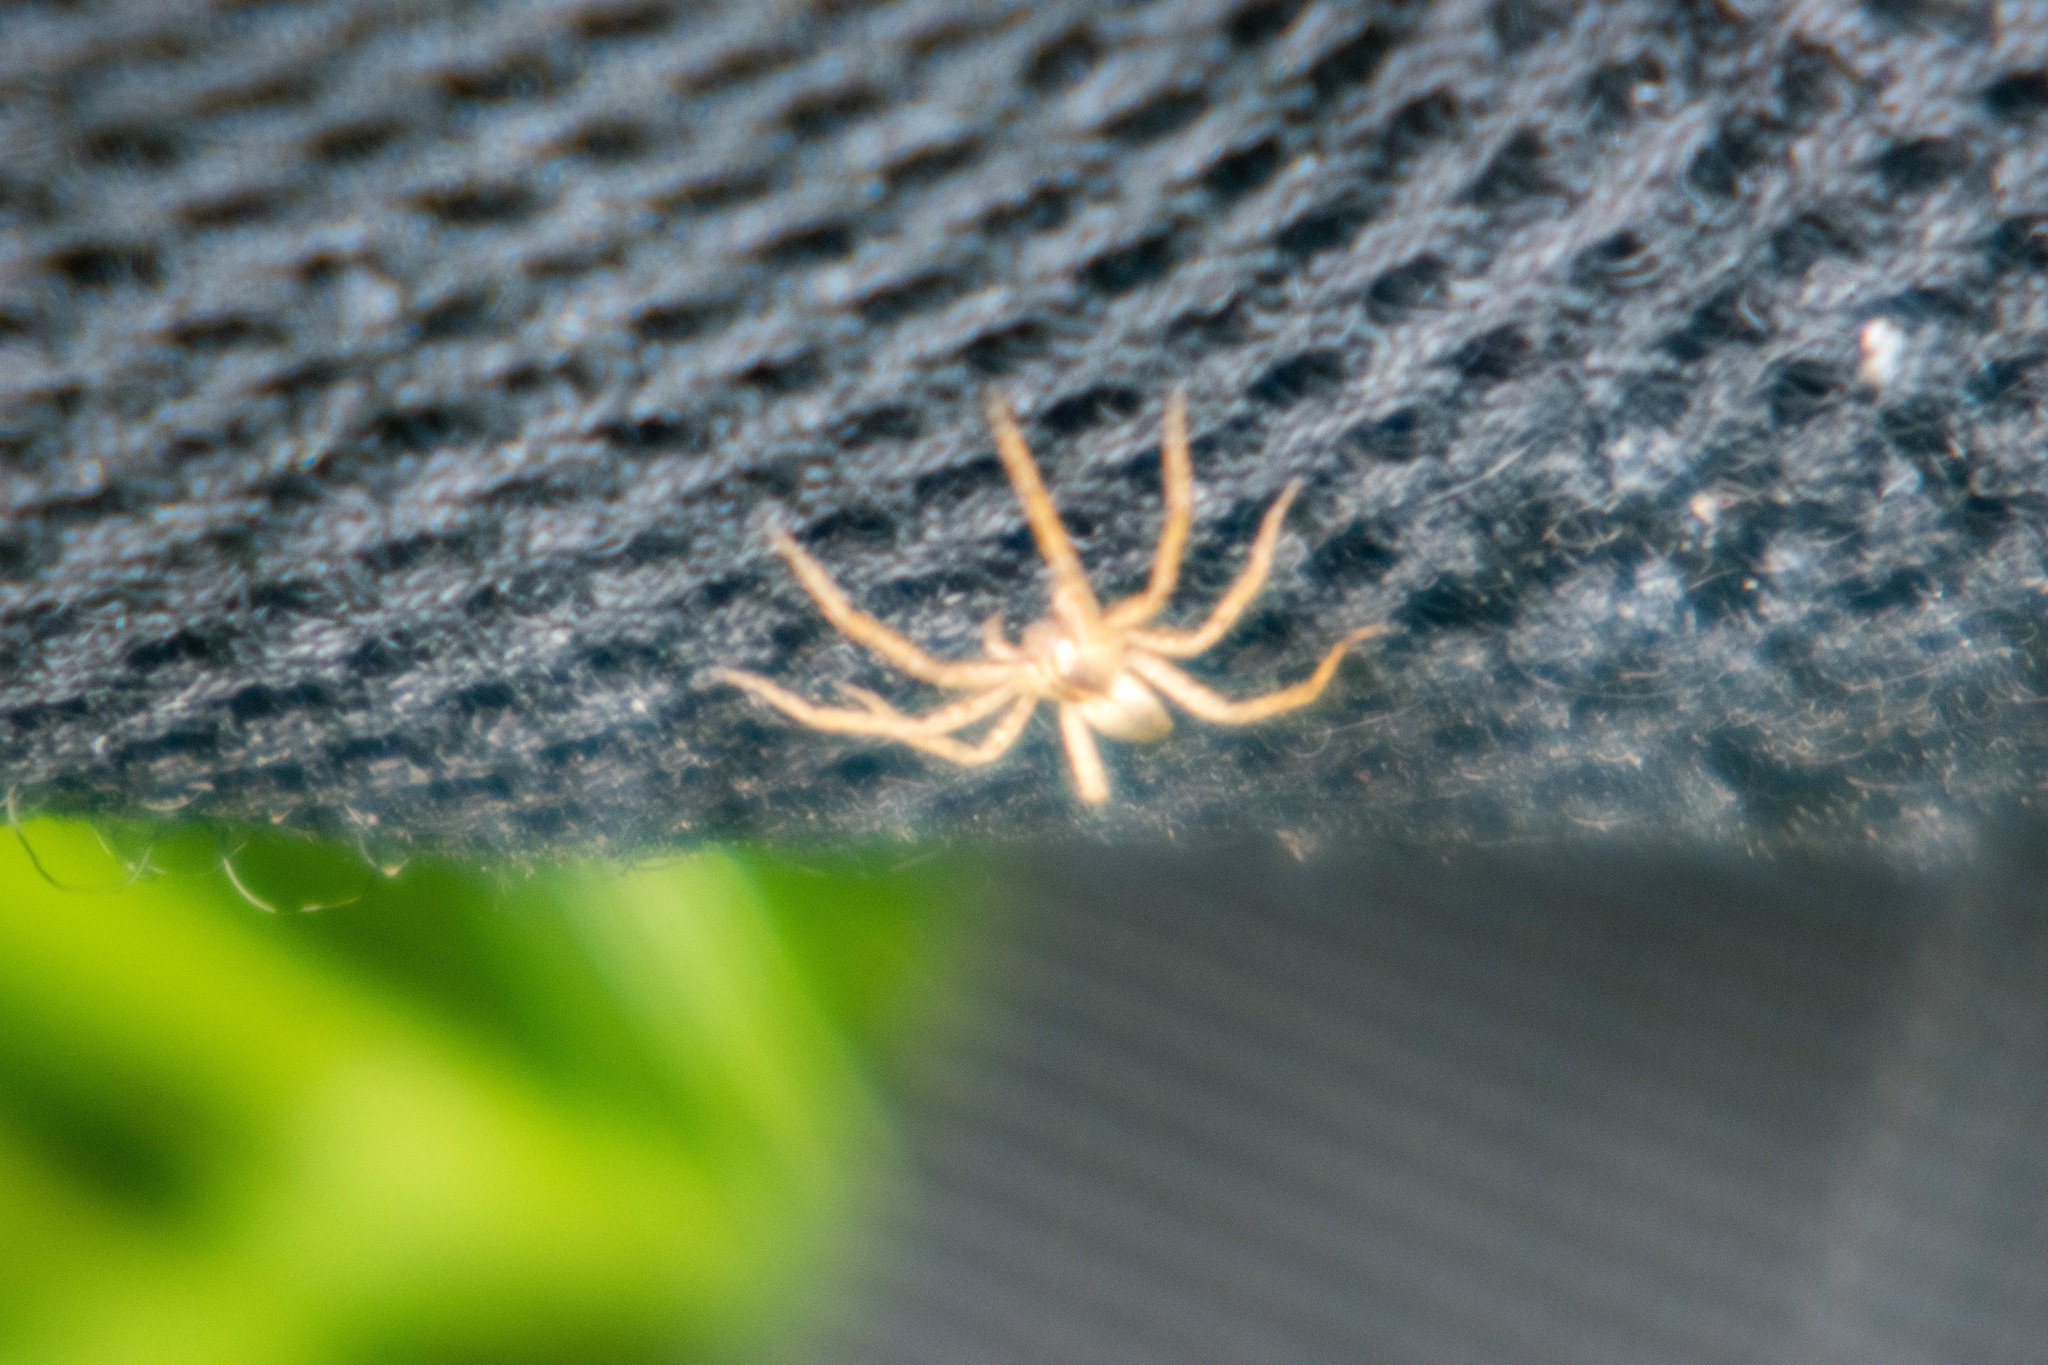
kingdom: Animalia
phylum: Arthropoda
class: Arachnida
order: Araneae
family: Pisauridae
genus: Pisaura
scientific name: Pisaura mirabilis
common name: Tent spider
